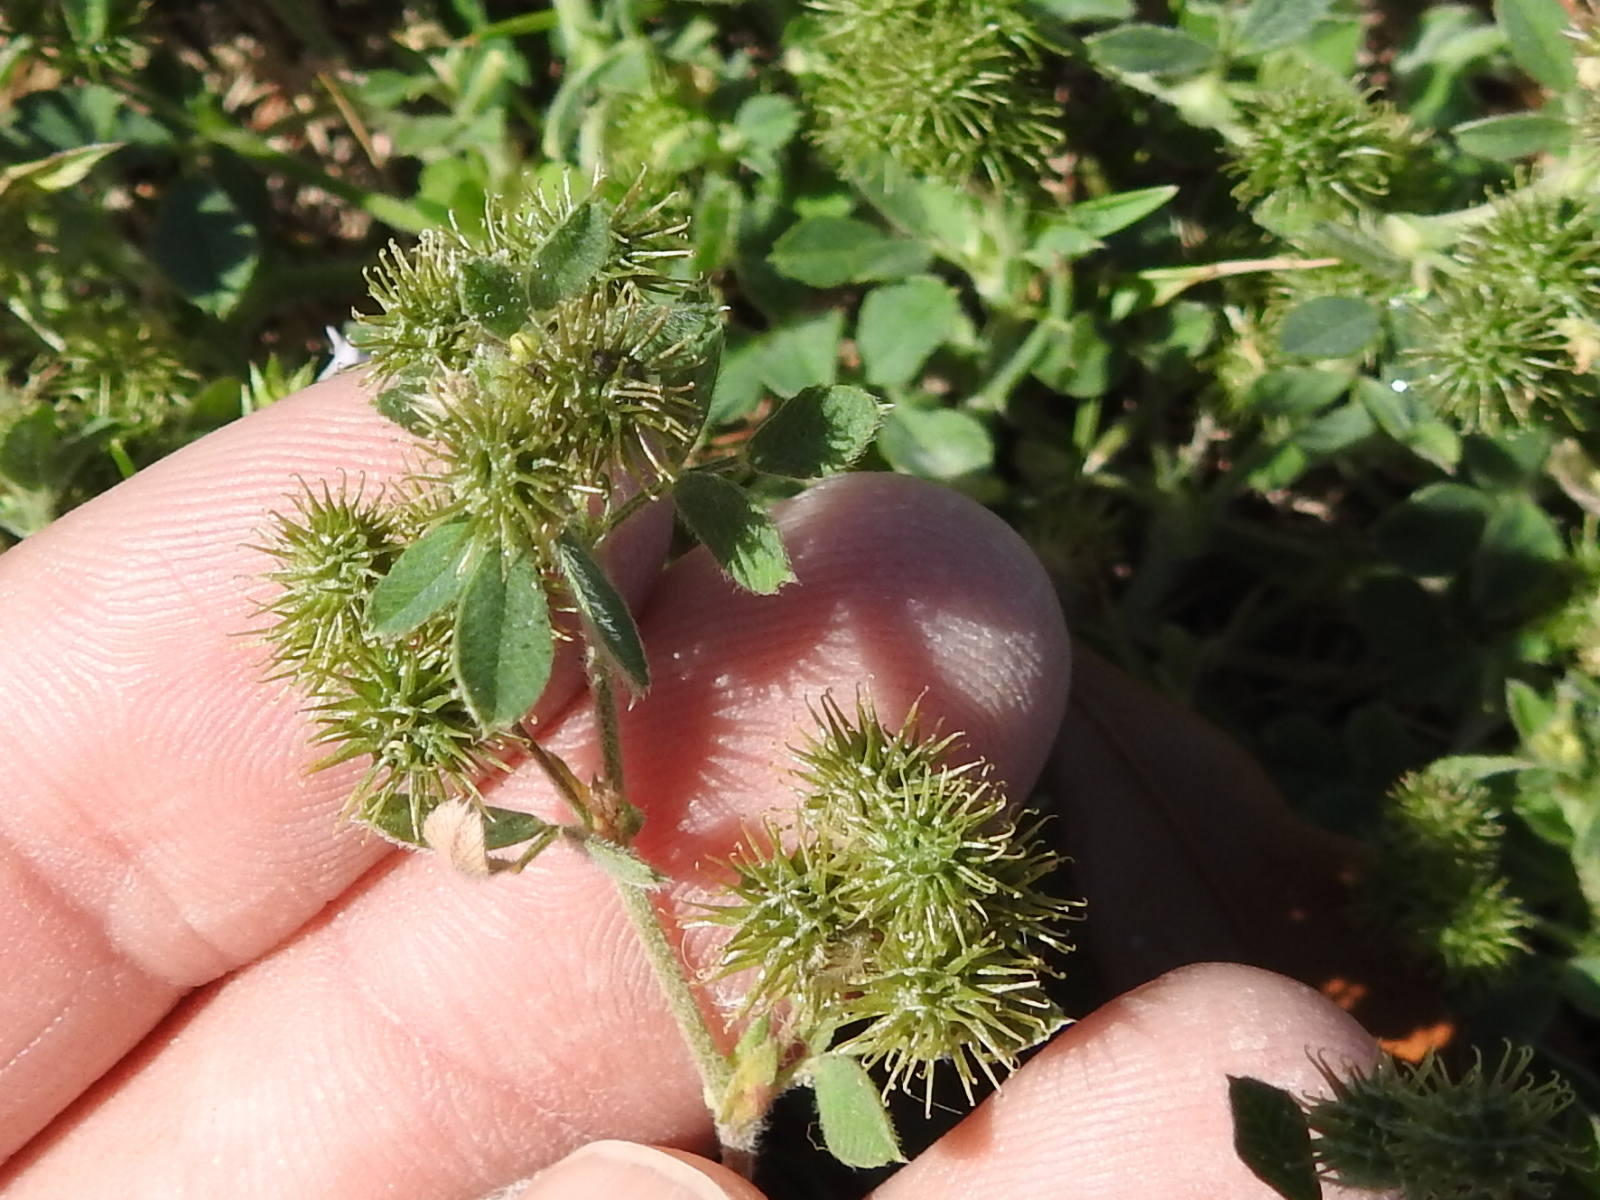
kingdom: Plantae
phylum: Tracheophyta
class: Magnoliopsida
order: Fabales
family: Fabaceae
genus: Medicago
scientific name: Medicago minima
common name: Little bur-clover
